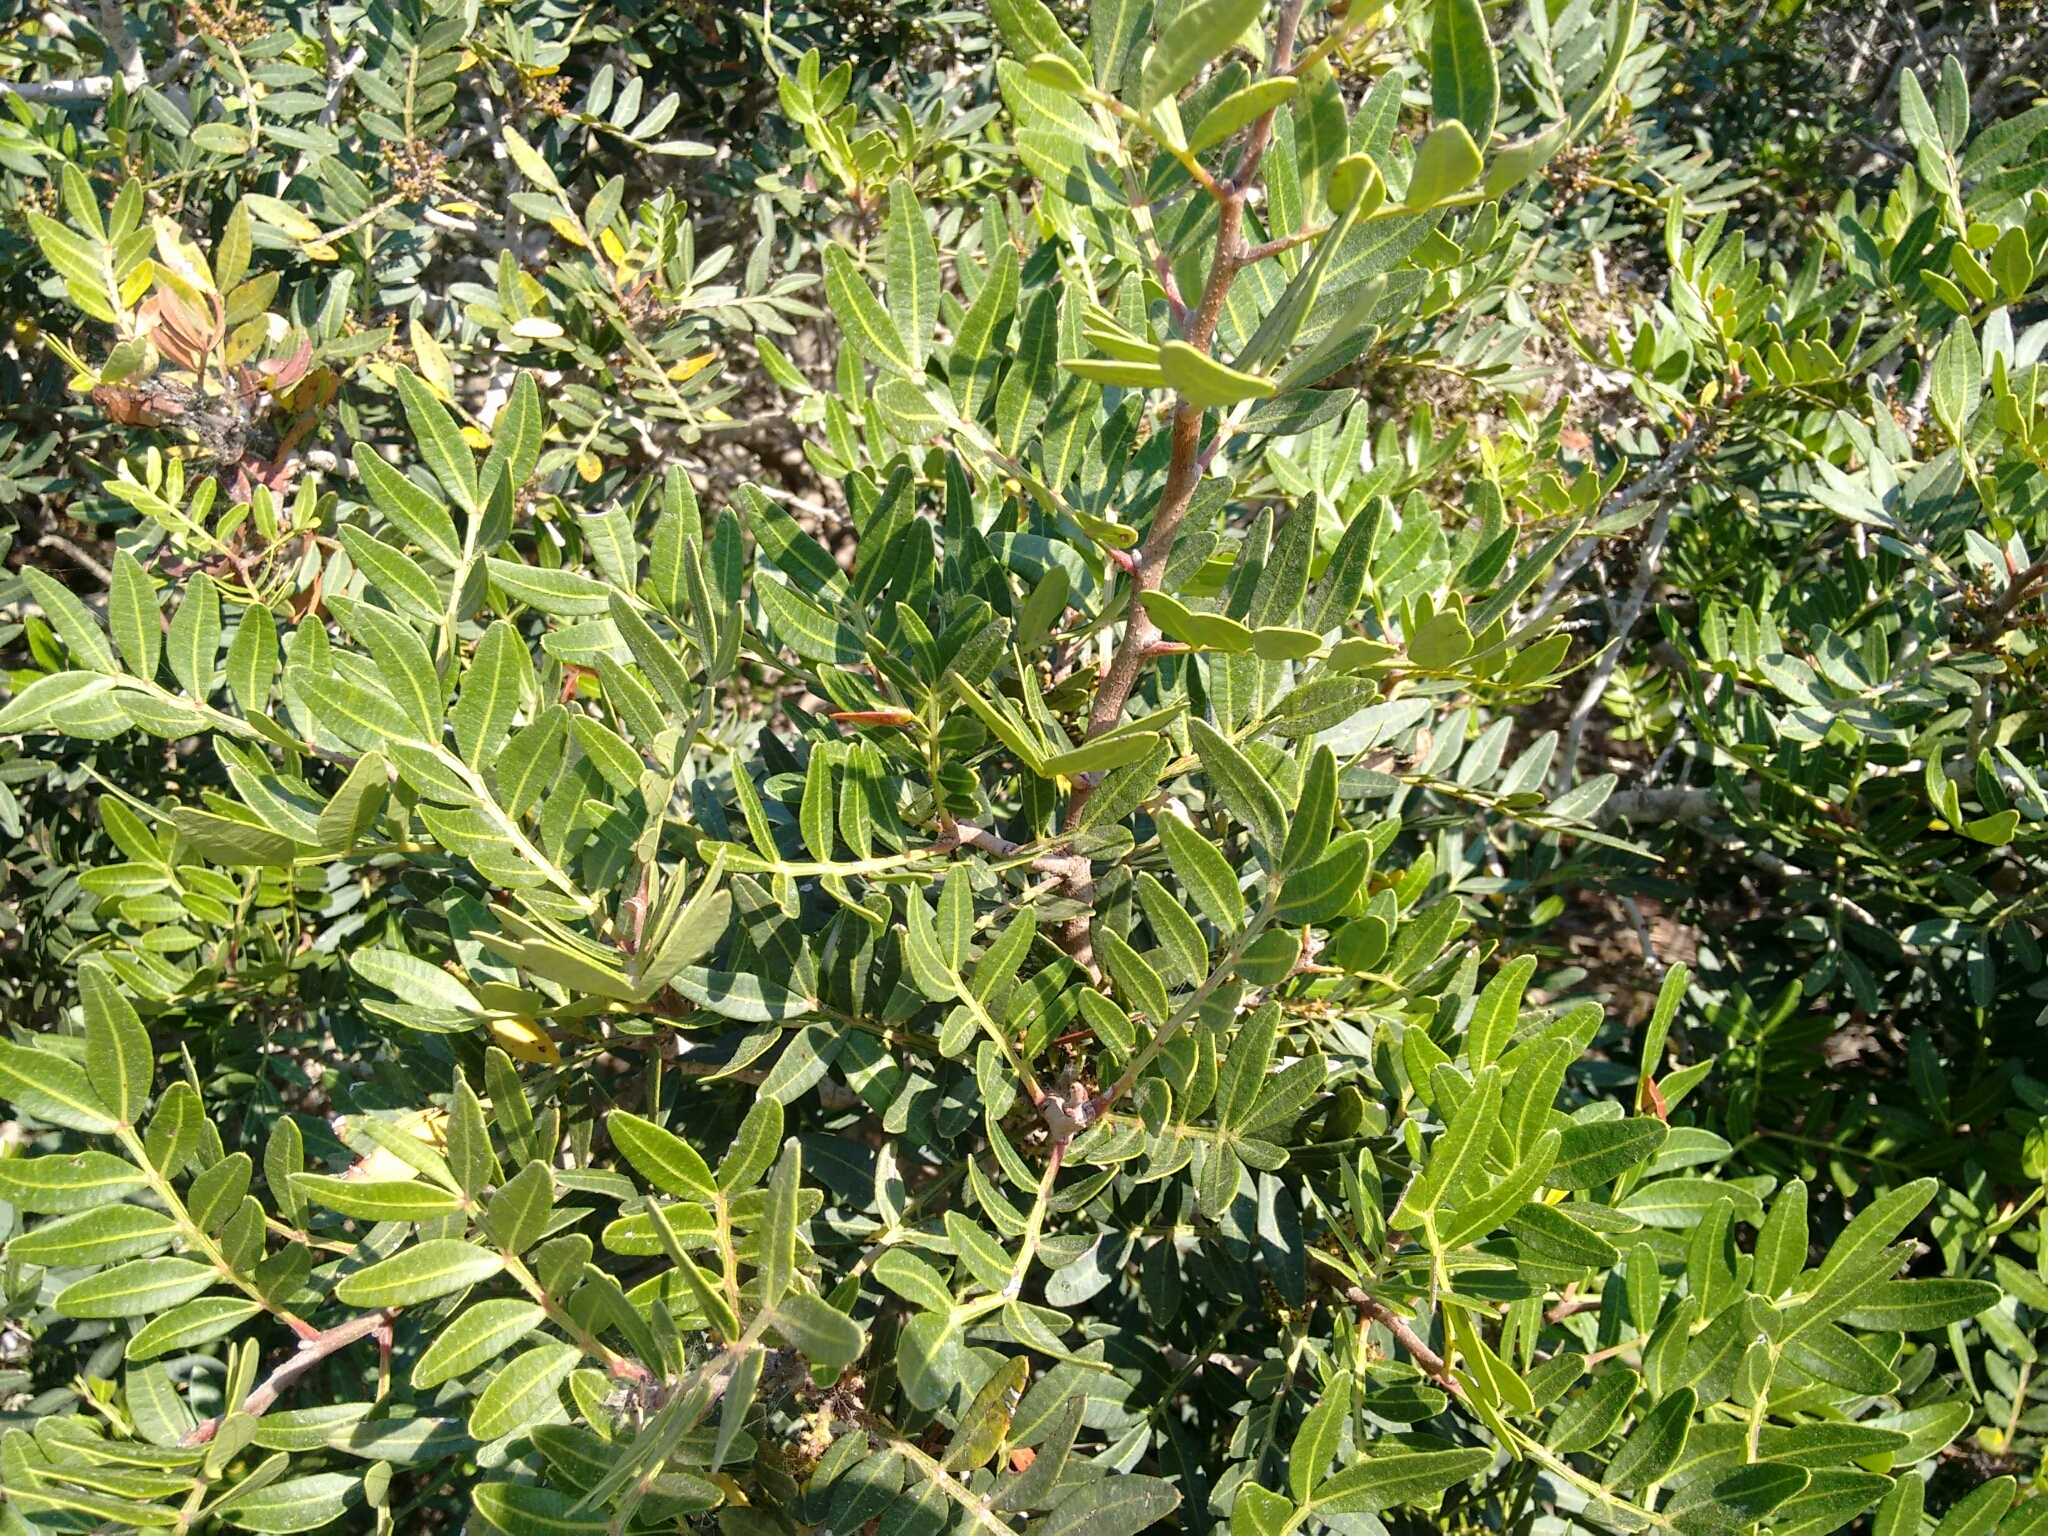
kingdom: Plantae
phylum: Tracheophyta
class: Magnoliopsida
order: Sapindales
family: Anacardiaceae
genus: Pistacia
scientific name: Pistacia lentiscus
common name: Lentisk
